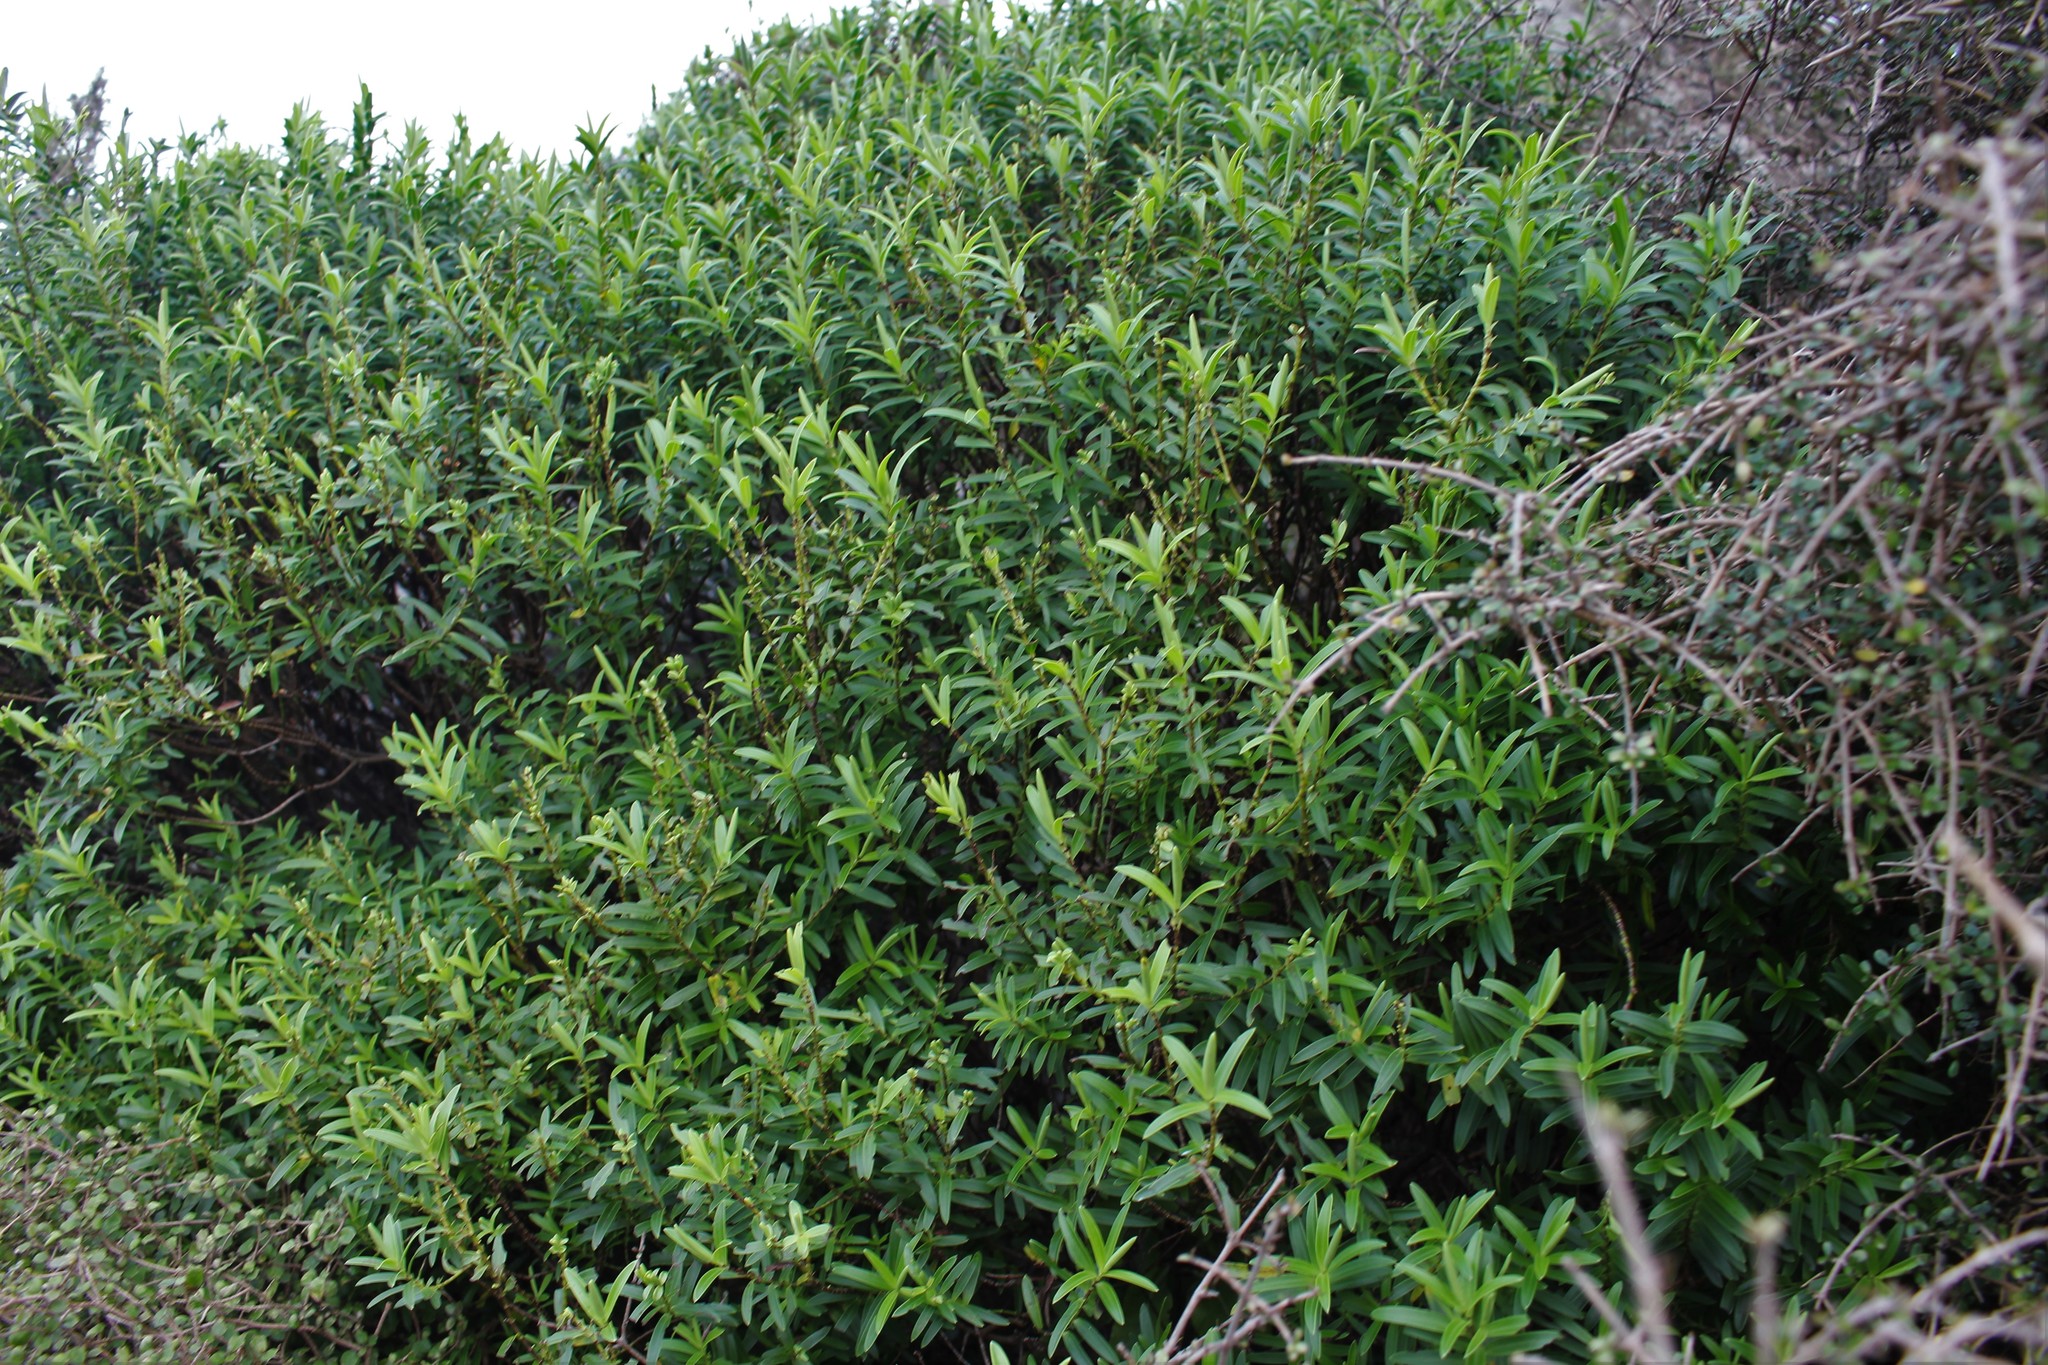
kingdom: Plantae
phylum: Tracheophyta
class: Magnoliopsida
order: Lamiales
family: Plantaginaceae
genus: Veronica
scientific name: Veronica strictissima
